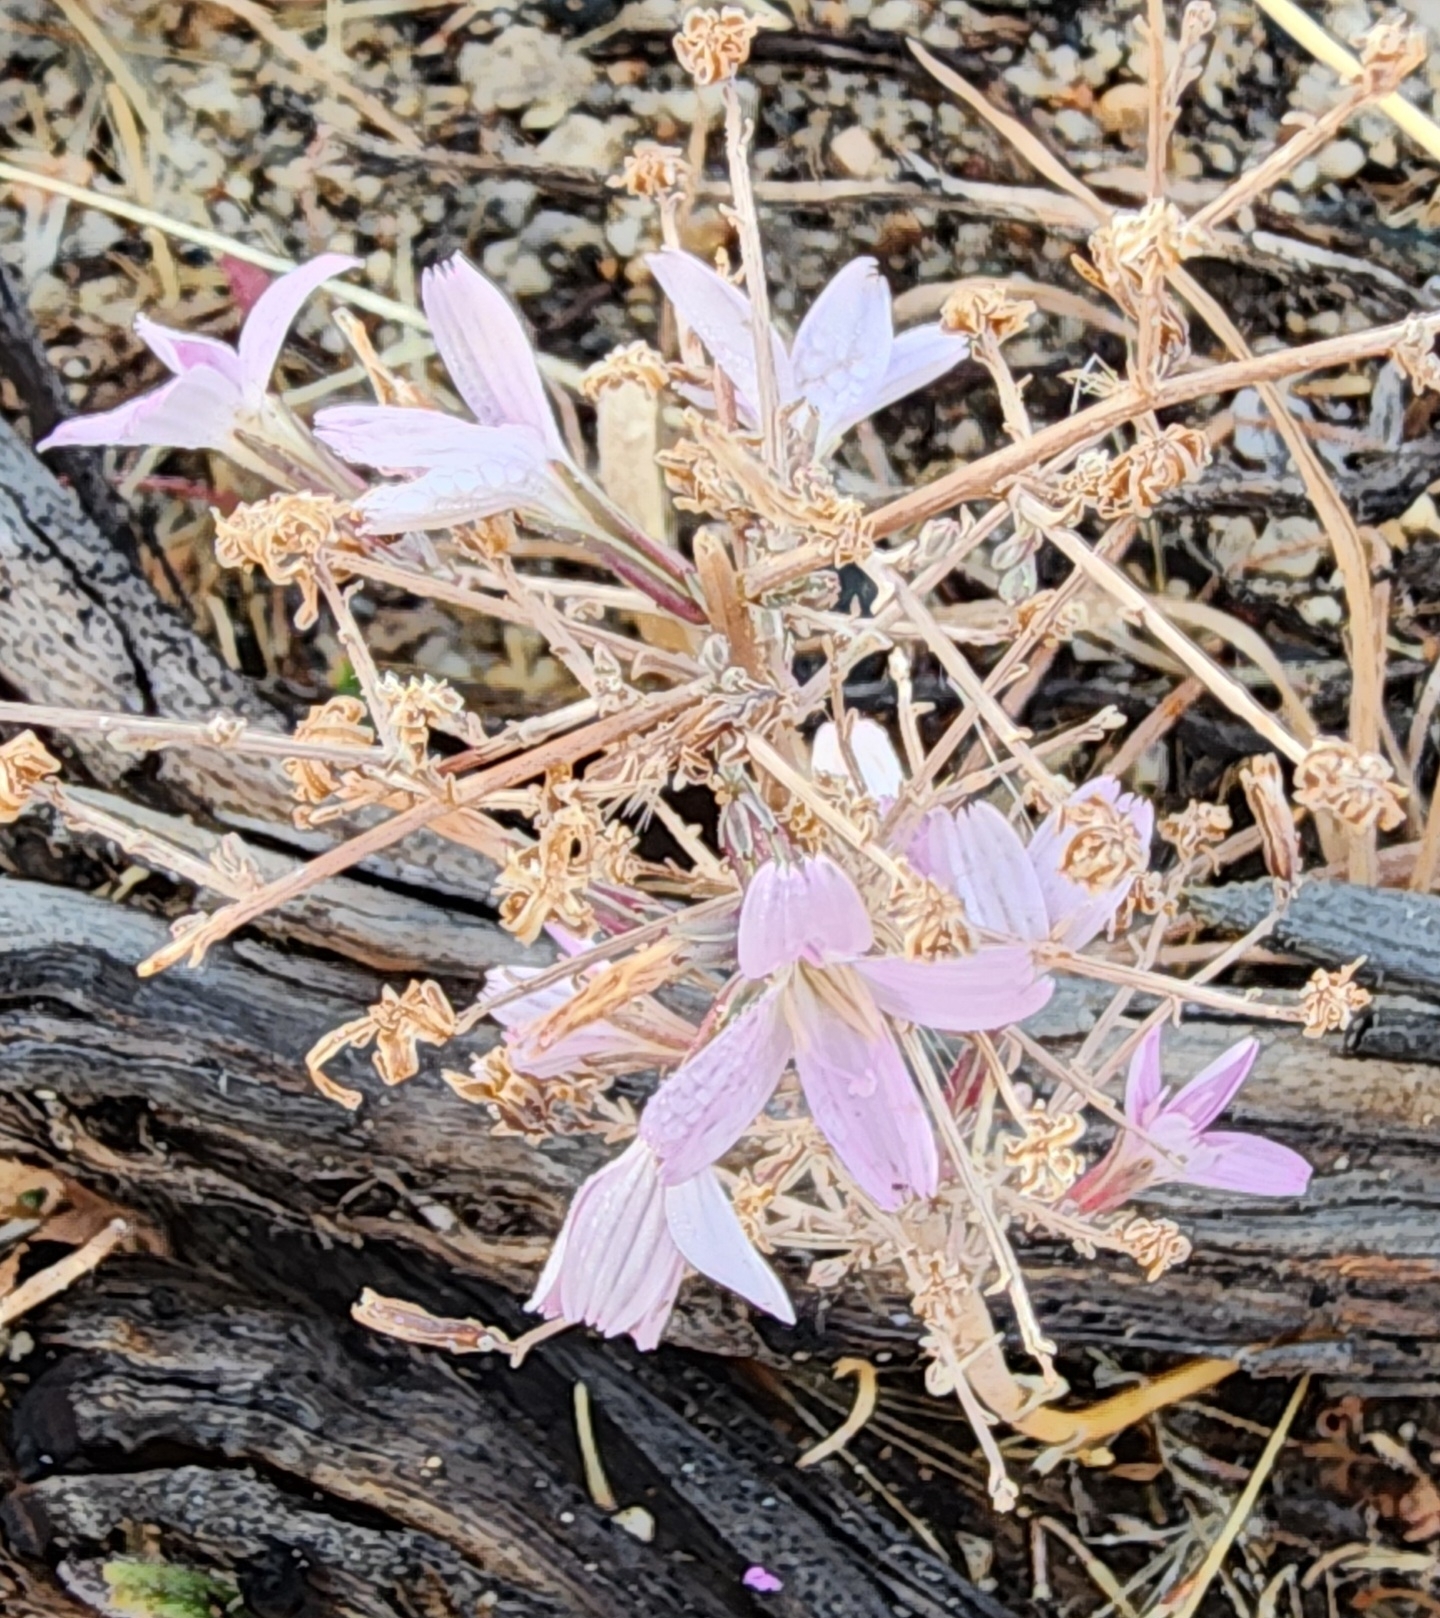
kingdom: Plantae
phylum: Tracheophyta
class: Magnoliopsida
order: Asterales
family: Asteraceae
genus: Stephanomeria
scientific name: Stephanomeria exigua
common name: Small wirelettuce
